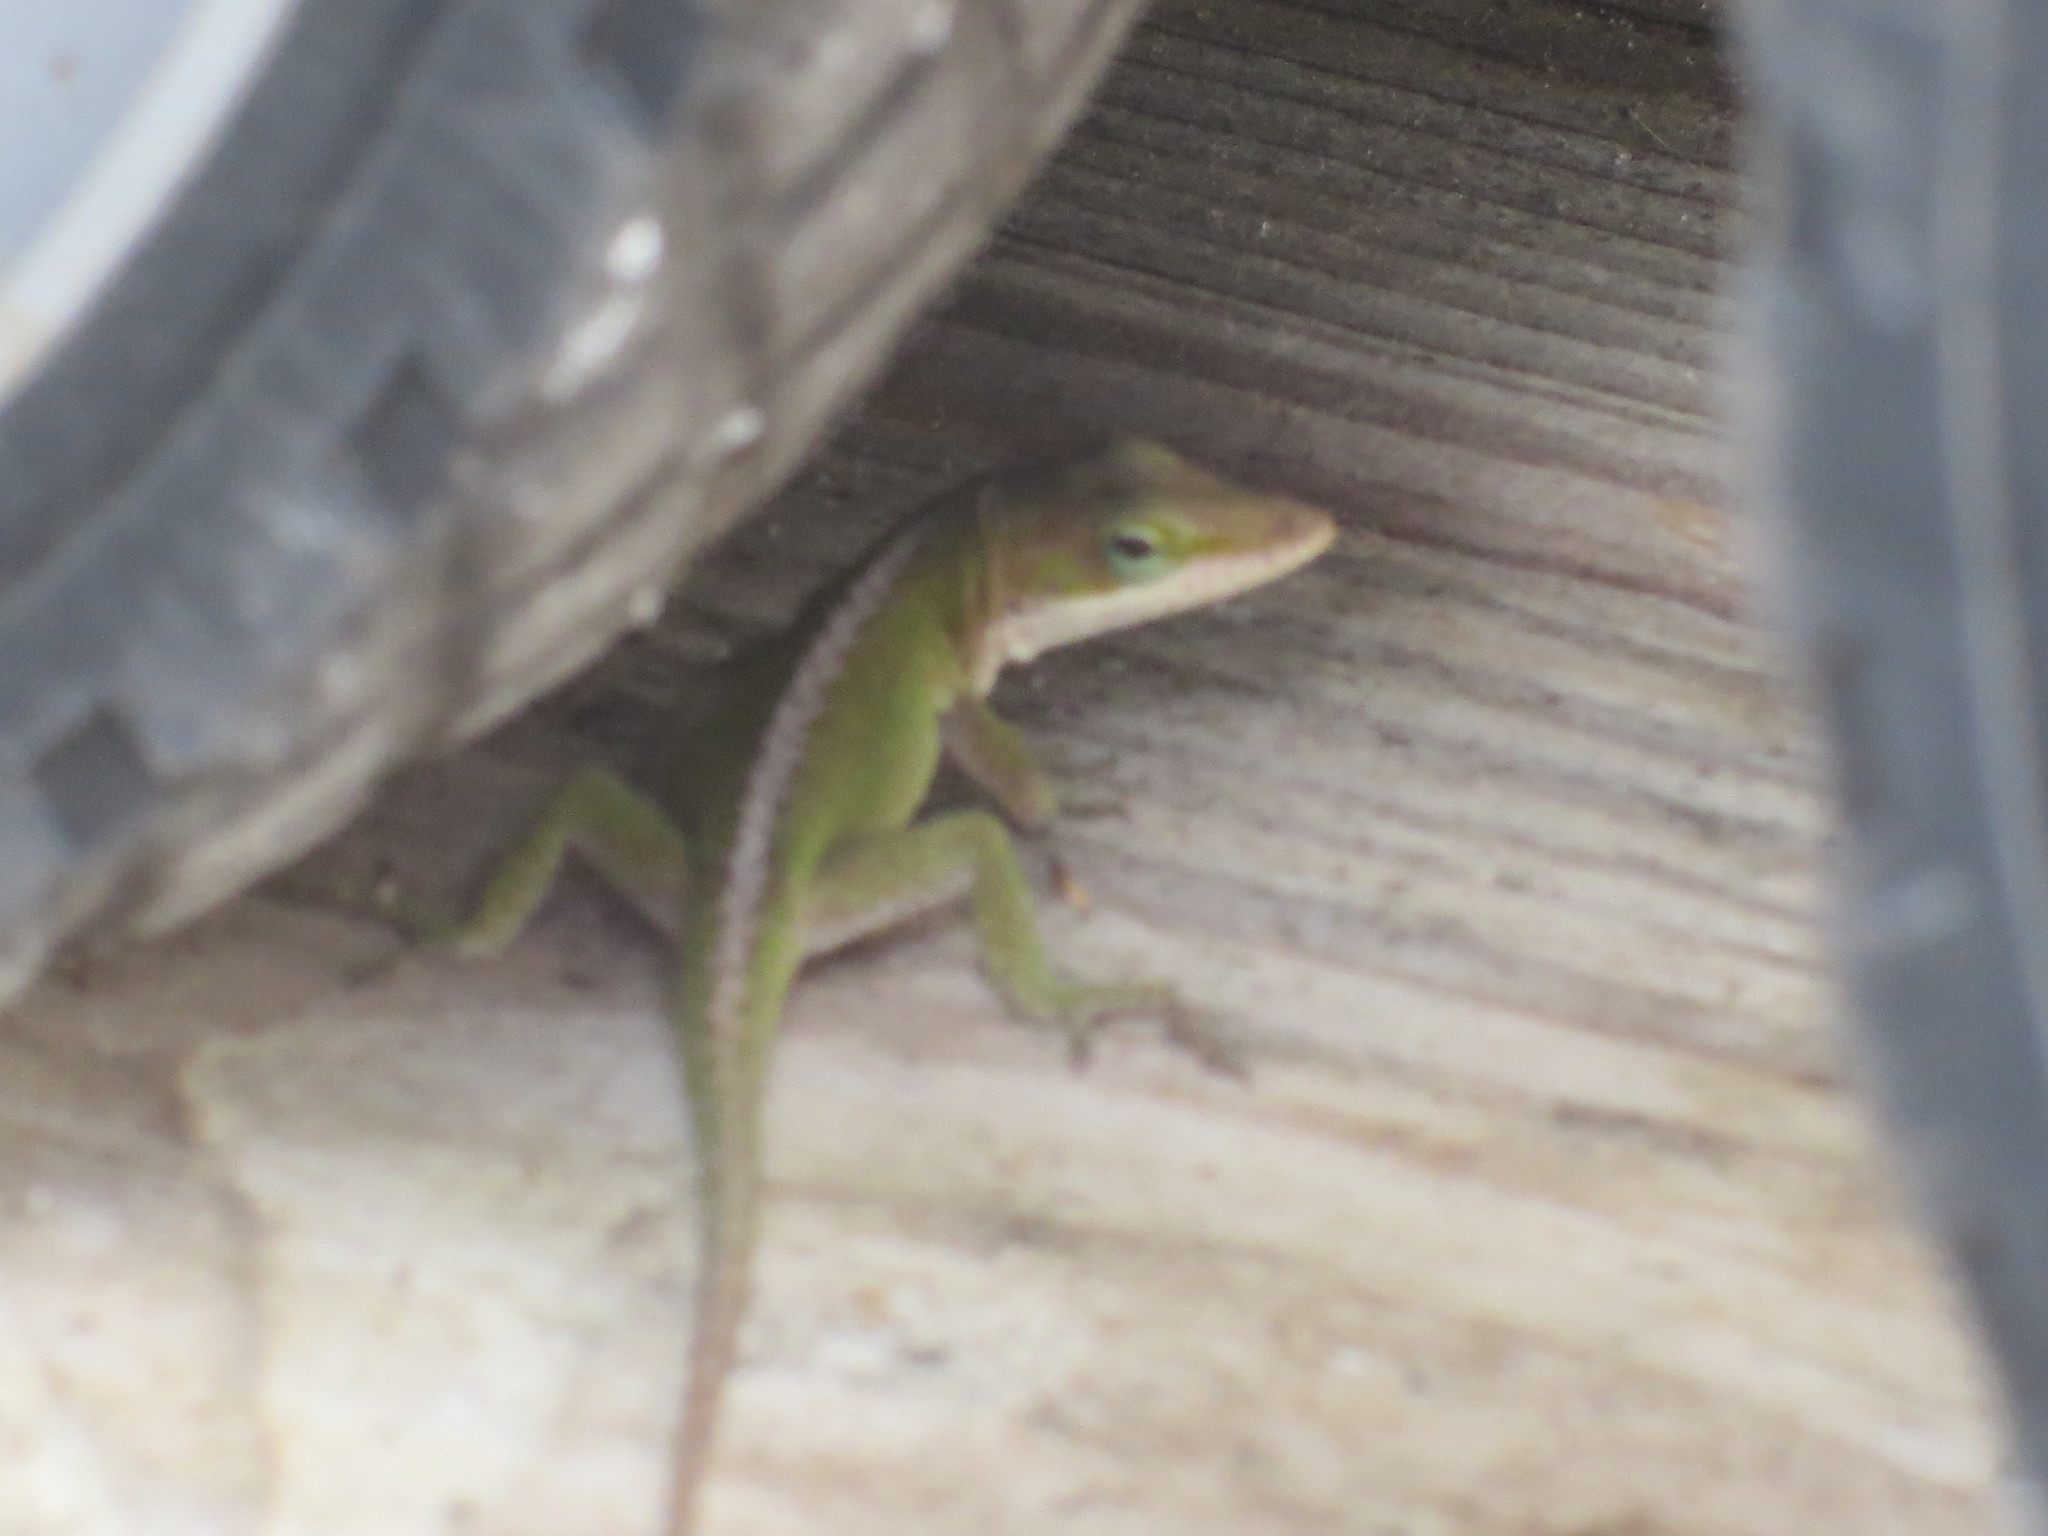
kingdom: Animalia
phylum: Chordata
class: Squamata
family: Dactyloidae
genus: Anolis
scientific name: Anolis carolinensis
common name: Green anole
